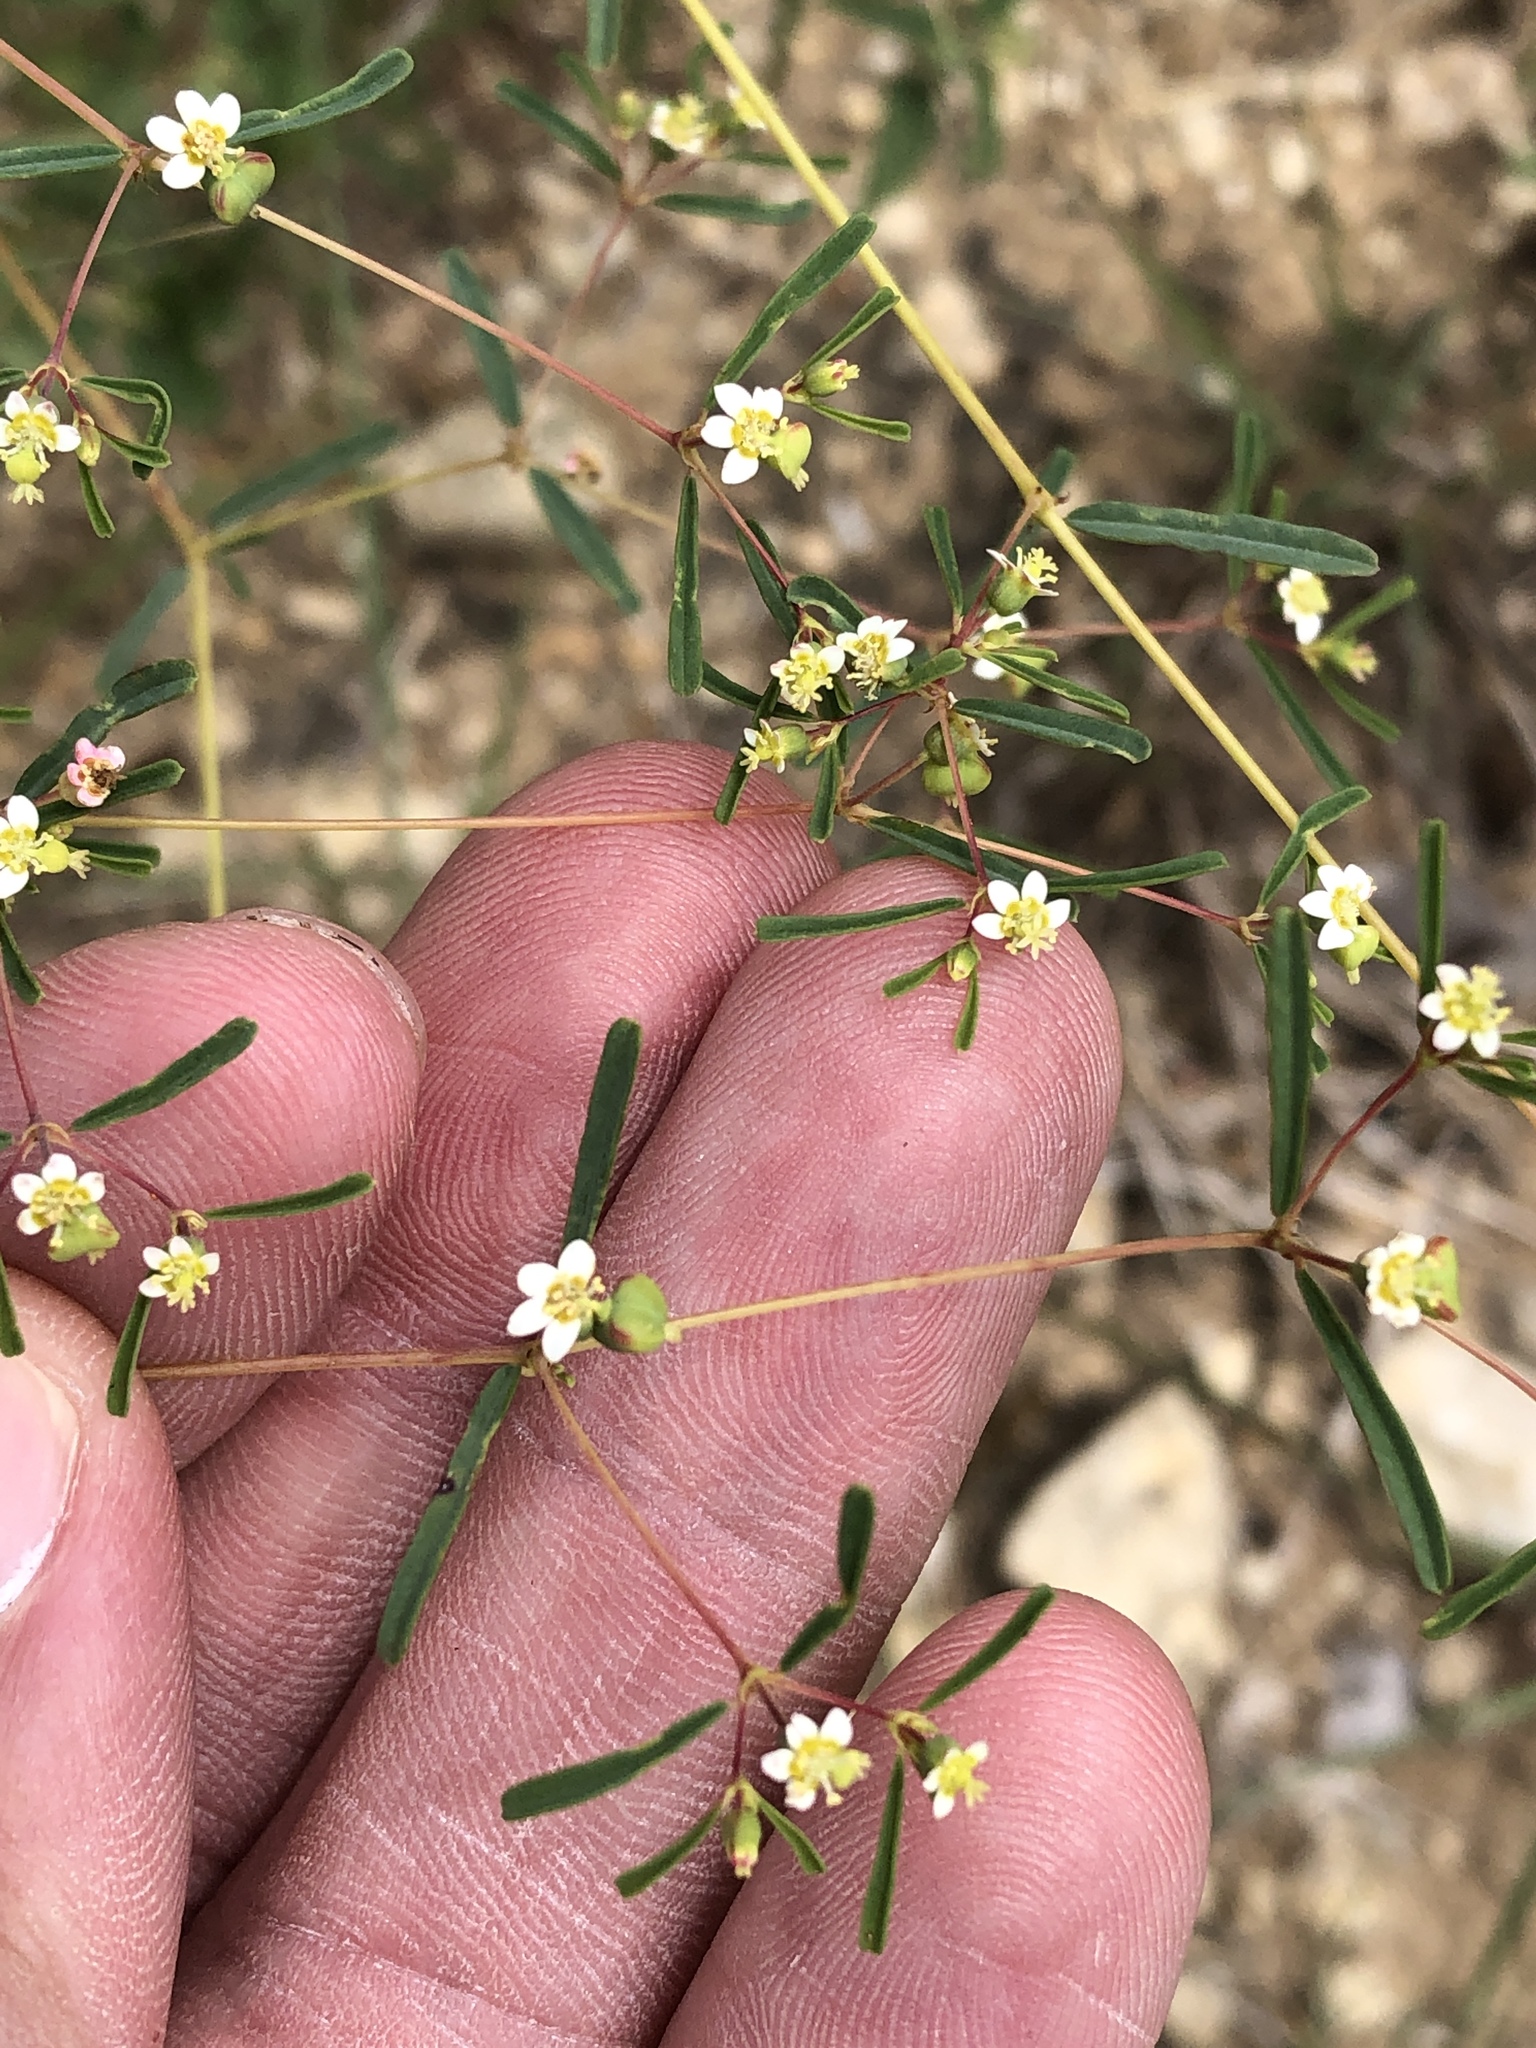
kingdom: Plantae
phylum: Tracheophyta
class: Magnoliopsida
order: Malpighiales
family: Euphorbiaceae
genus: Euphorbia
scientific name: Euphorbia missurica
